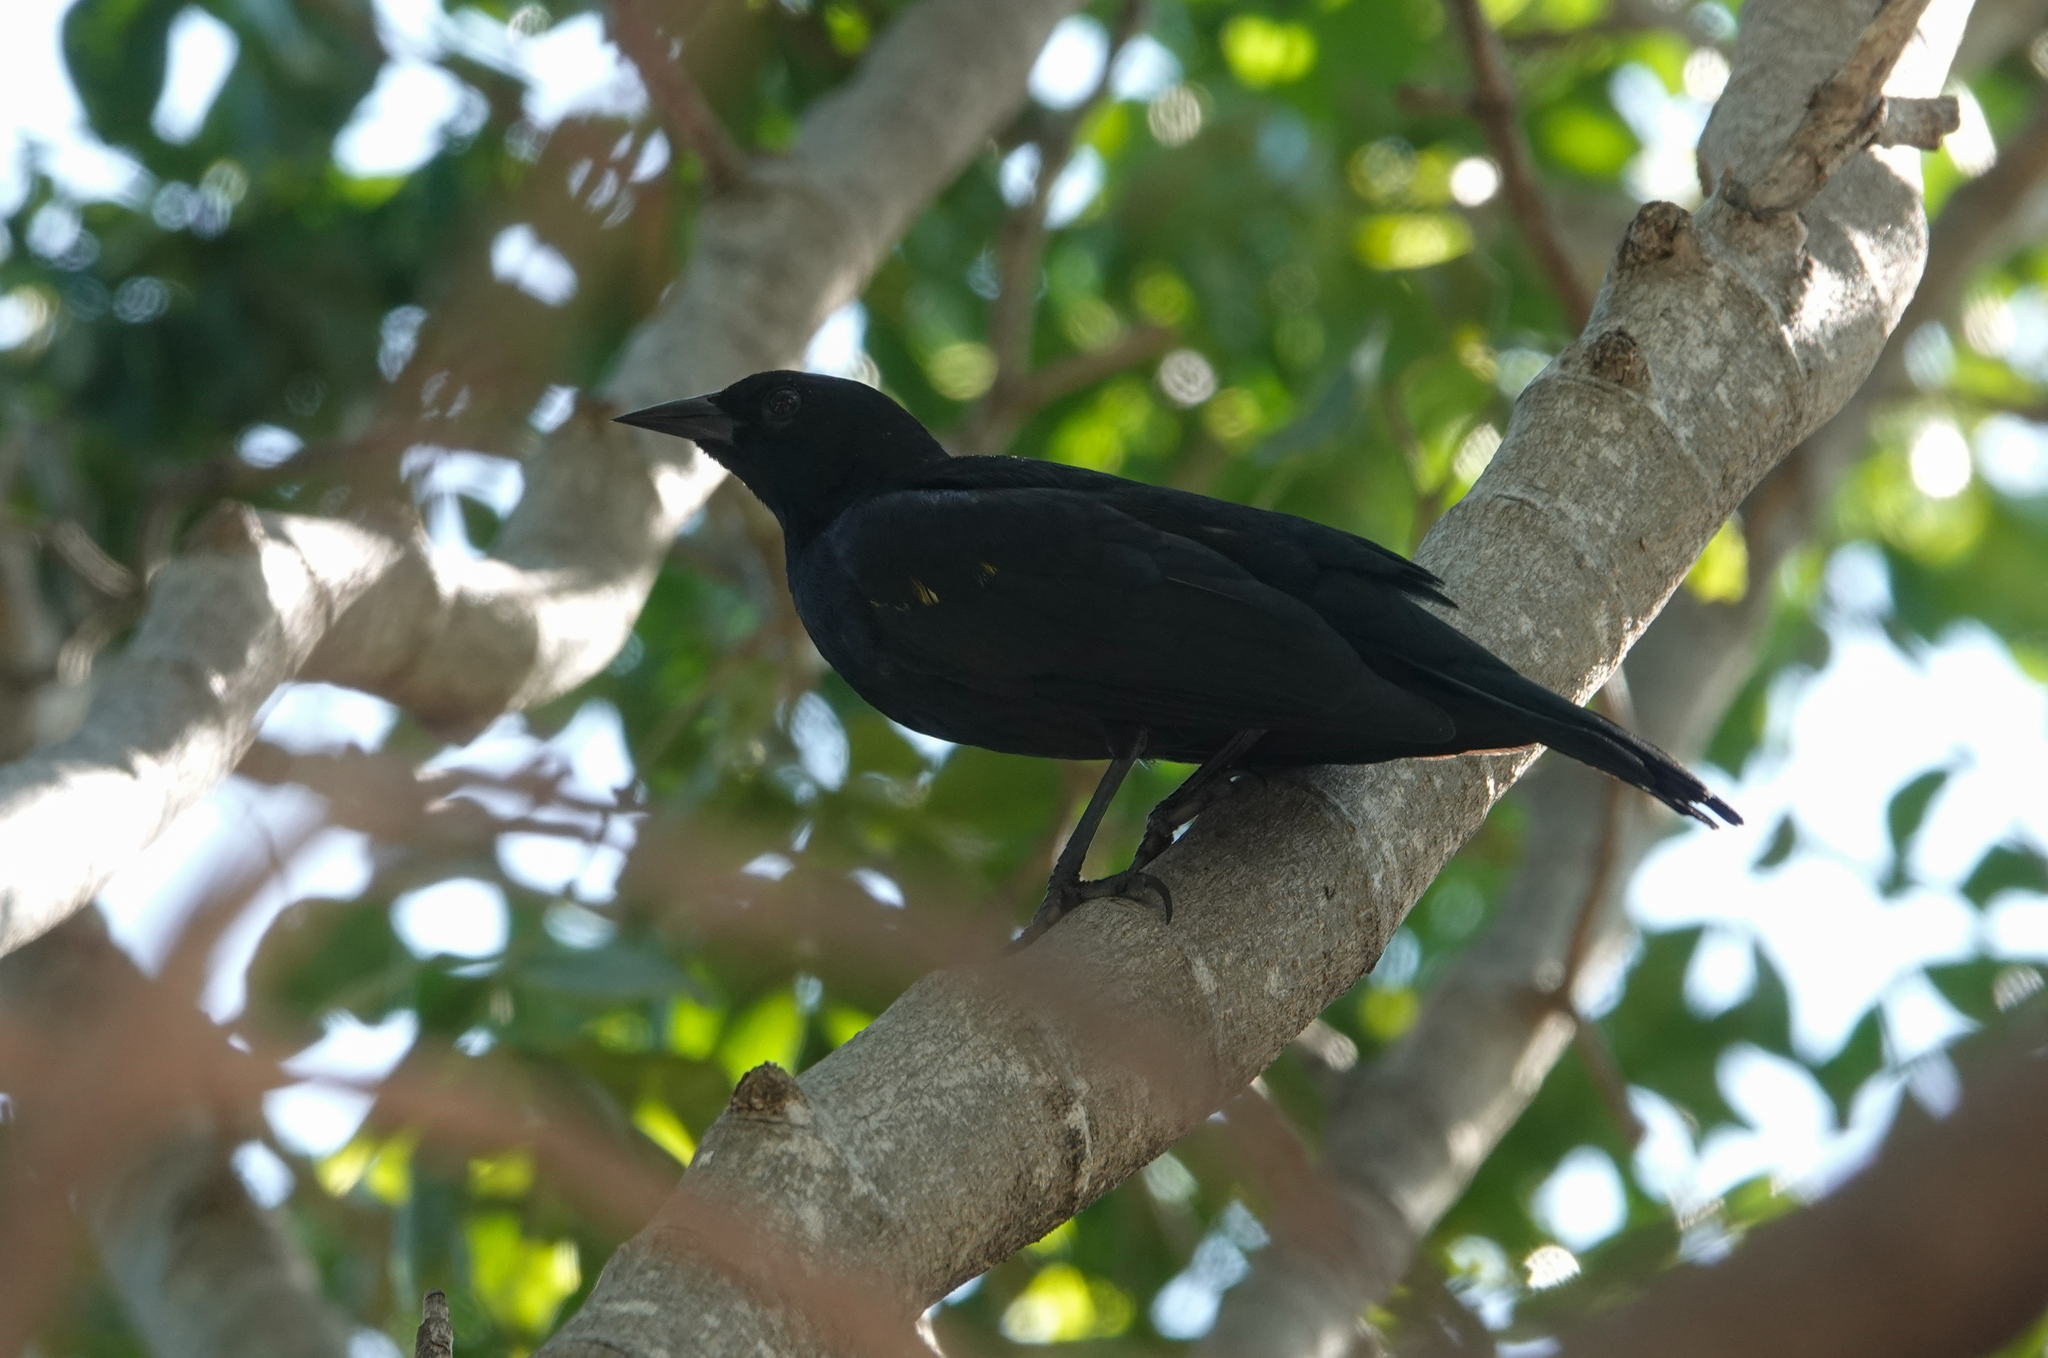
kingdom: Animalia
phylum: Chordata
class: Aves
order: Passeriformes
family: Icteridae
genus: Agelaius
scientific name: Agelaius xanthomus
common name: Yellow-shouldered blackbird
